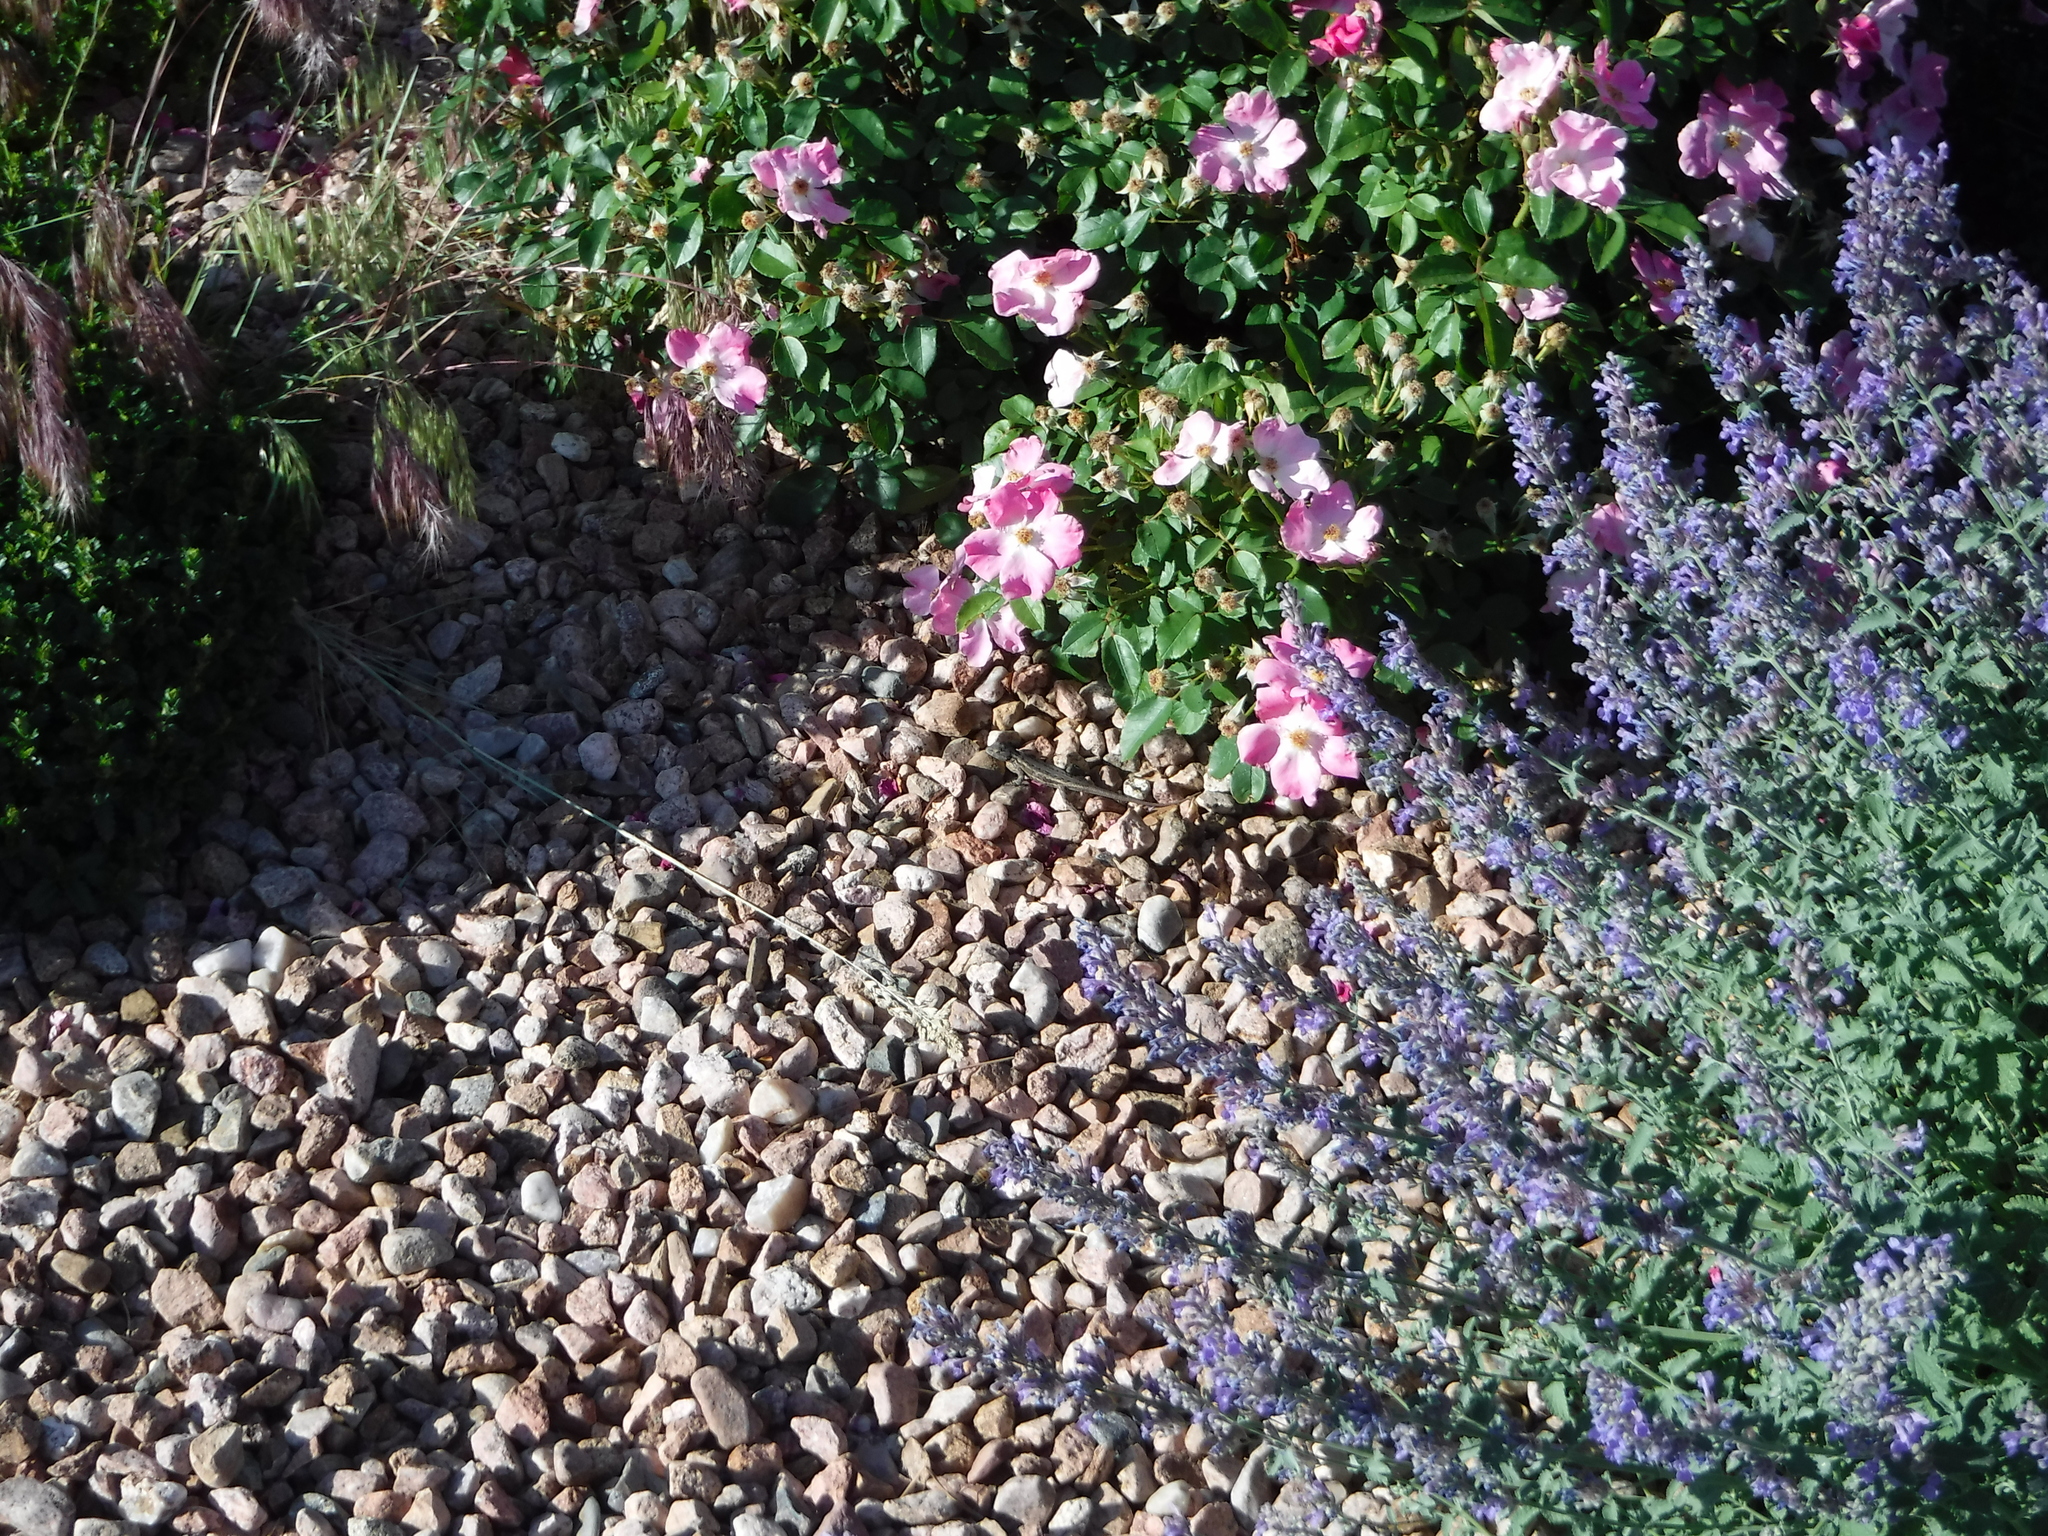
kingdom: Animalia
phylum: Chordata
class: Squamata
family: Phrynosomatidae
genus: Sceloporus
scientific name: Sceloporus cowlesi
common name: White sands prairie lizard
